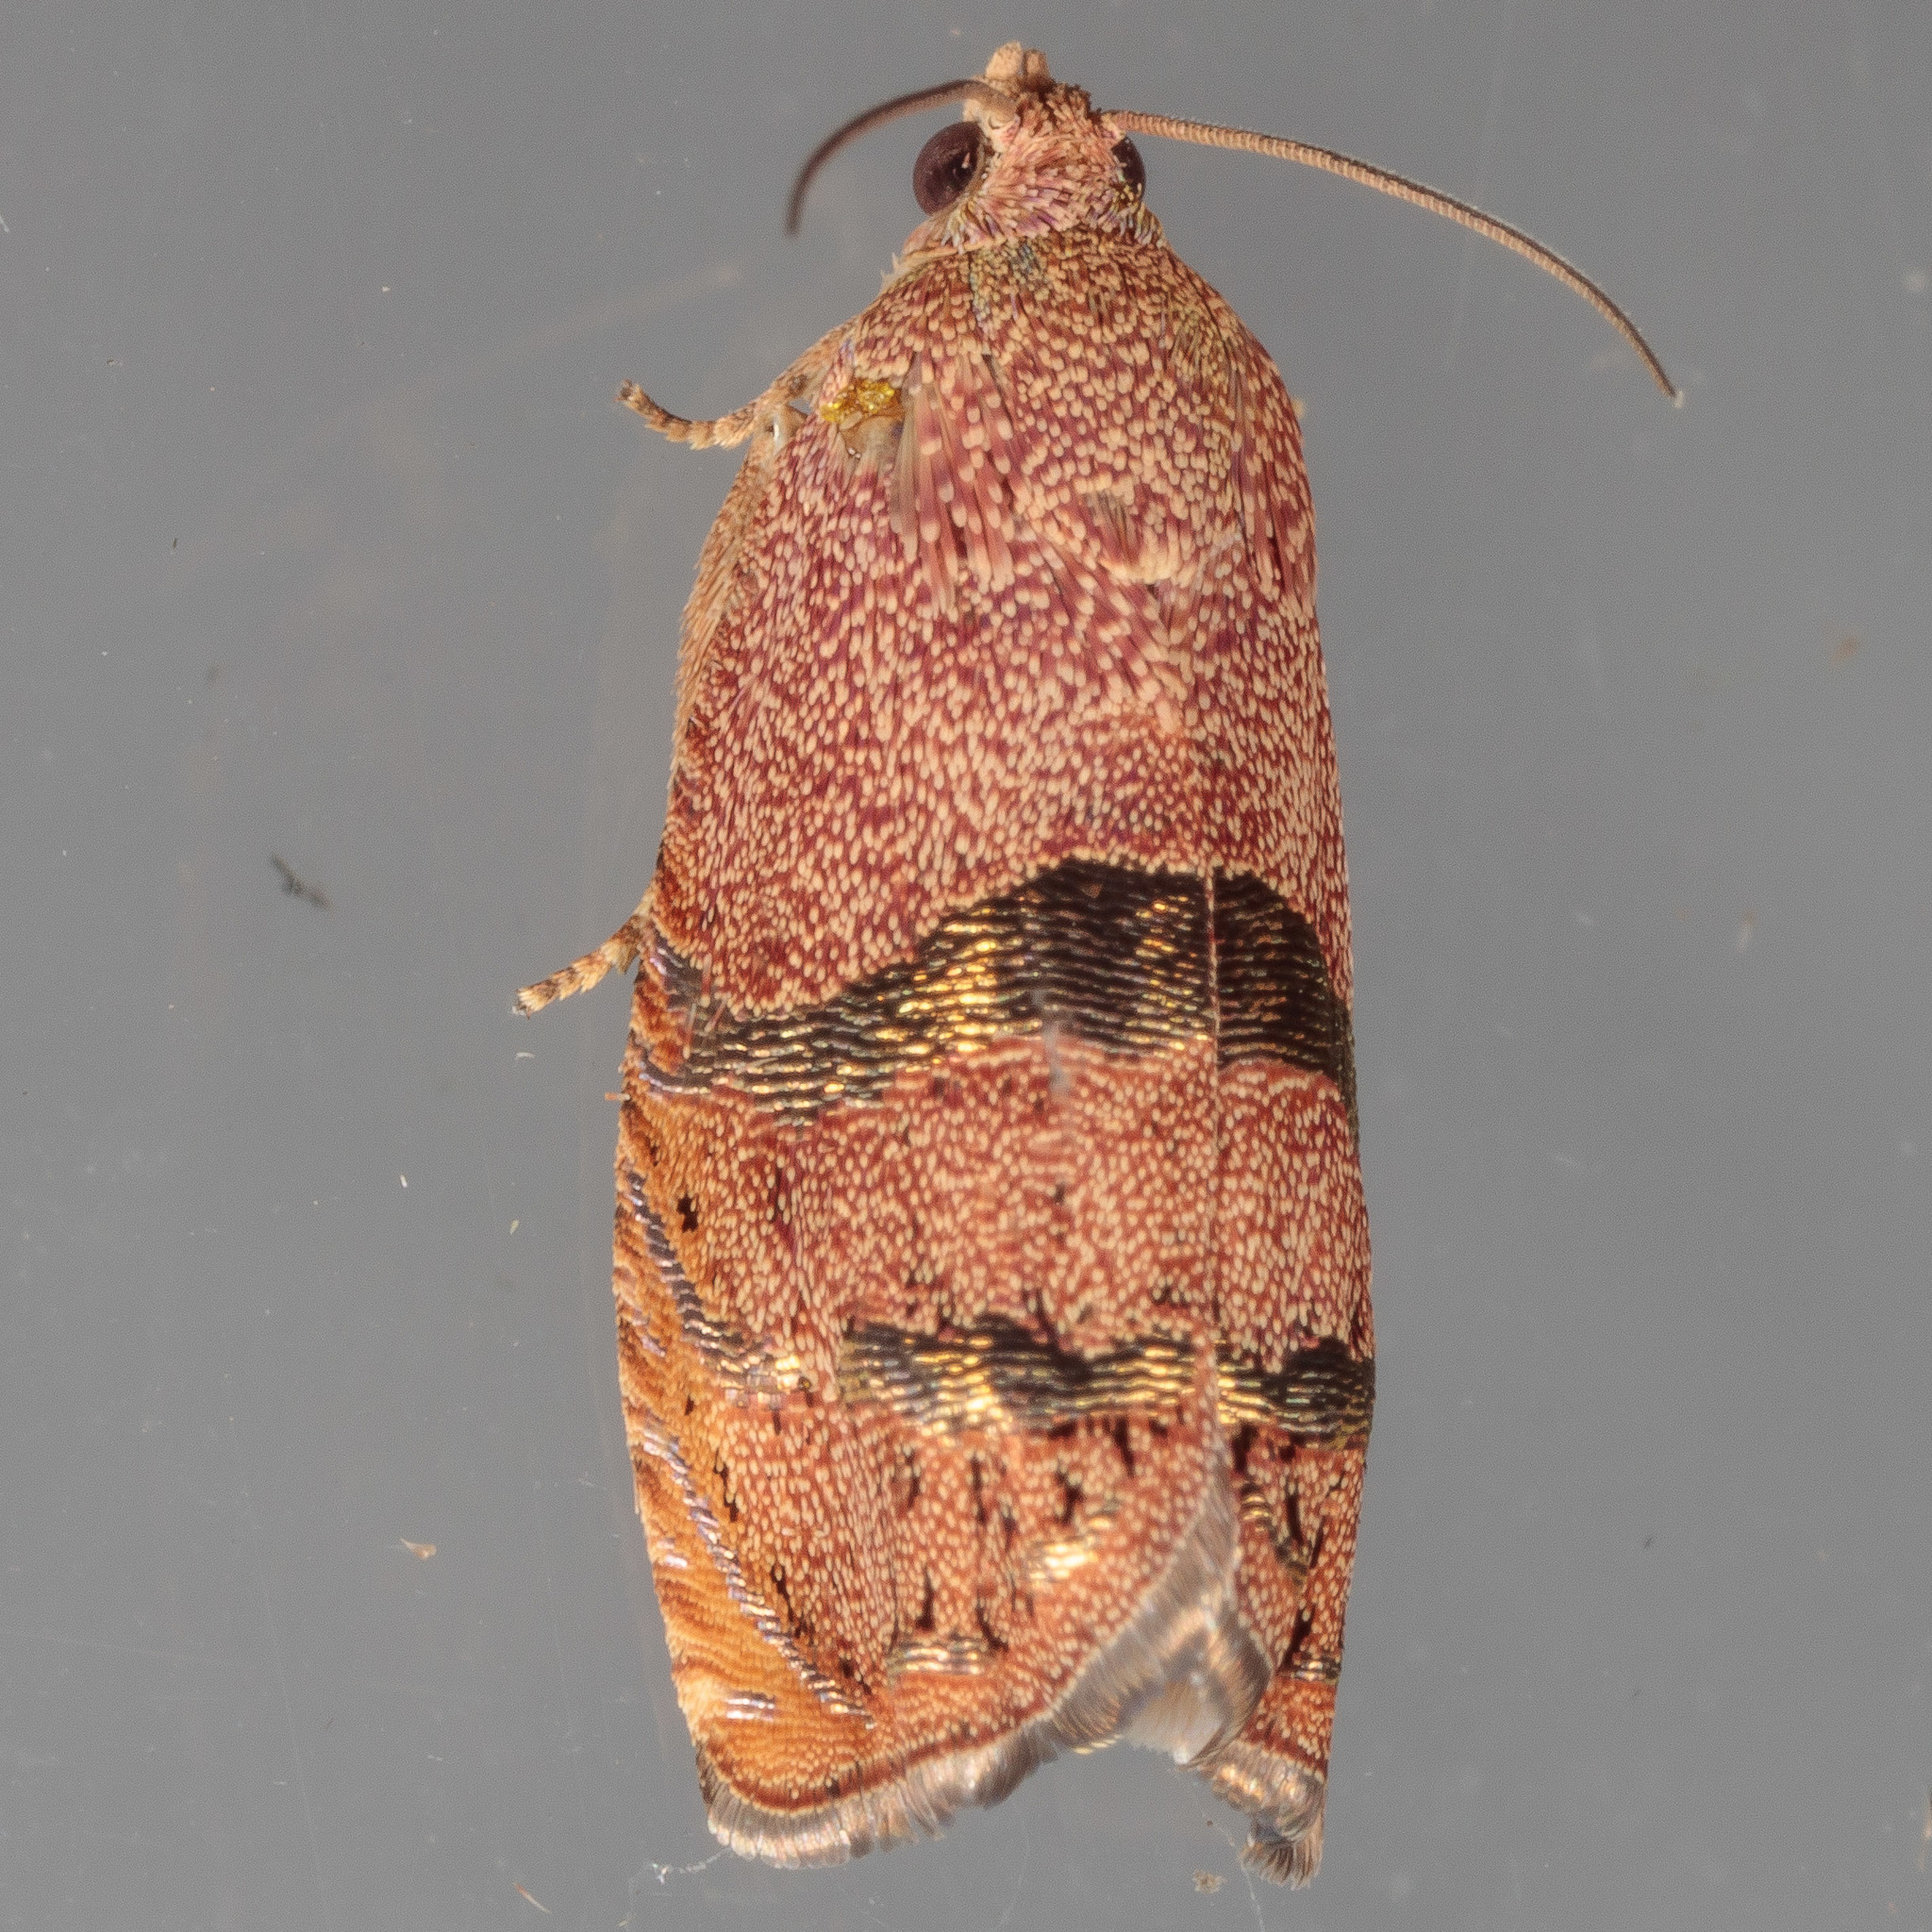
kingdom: Animalia
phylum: Arthropoda
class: Insecta
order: Lepidoptera
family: Tortricidae
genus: Cydia
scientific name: Cydia latiferreana
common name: Filbertworm moth
